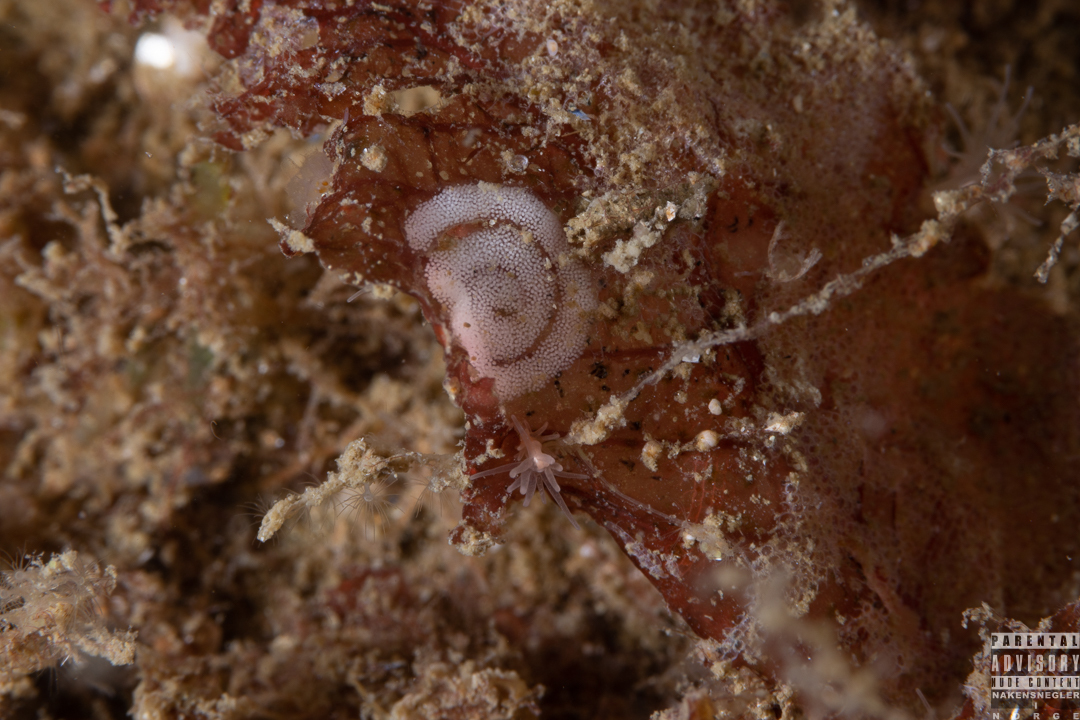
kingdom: Animalia
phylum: Mollusca
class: Gastropoda
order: Nudibranchia
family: Polyceridae
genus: Limacia
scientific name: Limacia clavigera
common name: Orange-clubbed sea slug
